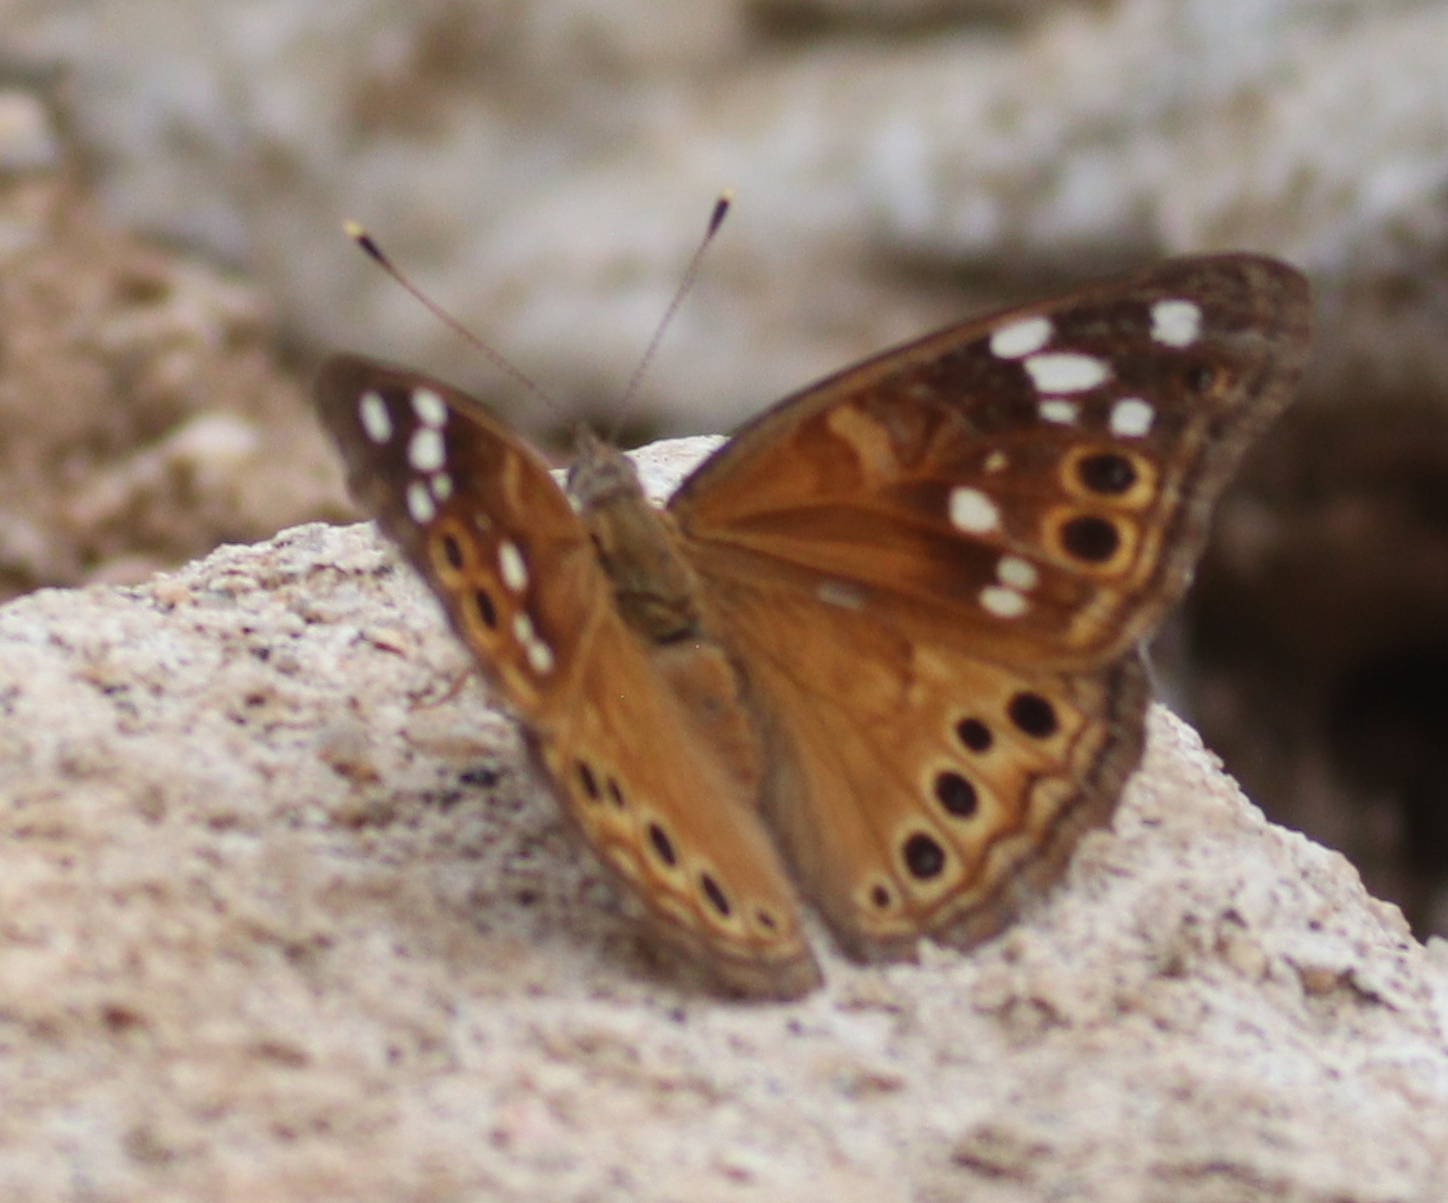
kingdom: Animalia
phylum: Arthropoda
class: Insecta
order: Lepidoptera
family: Nymphalidae
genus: Asterocampa
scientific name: Asterocampa leilia
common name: Empress leilia
